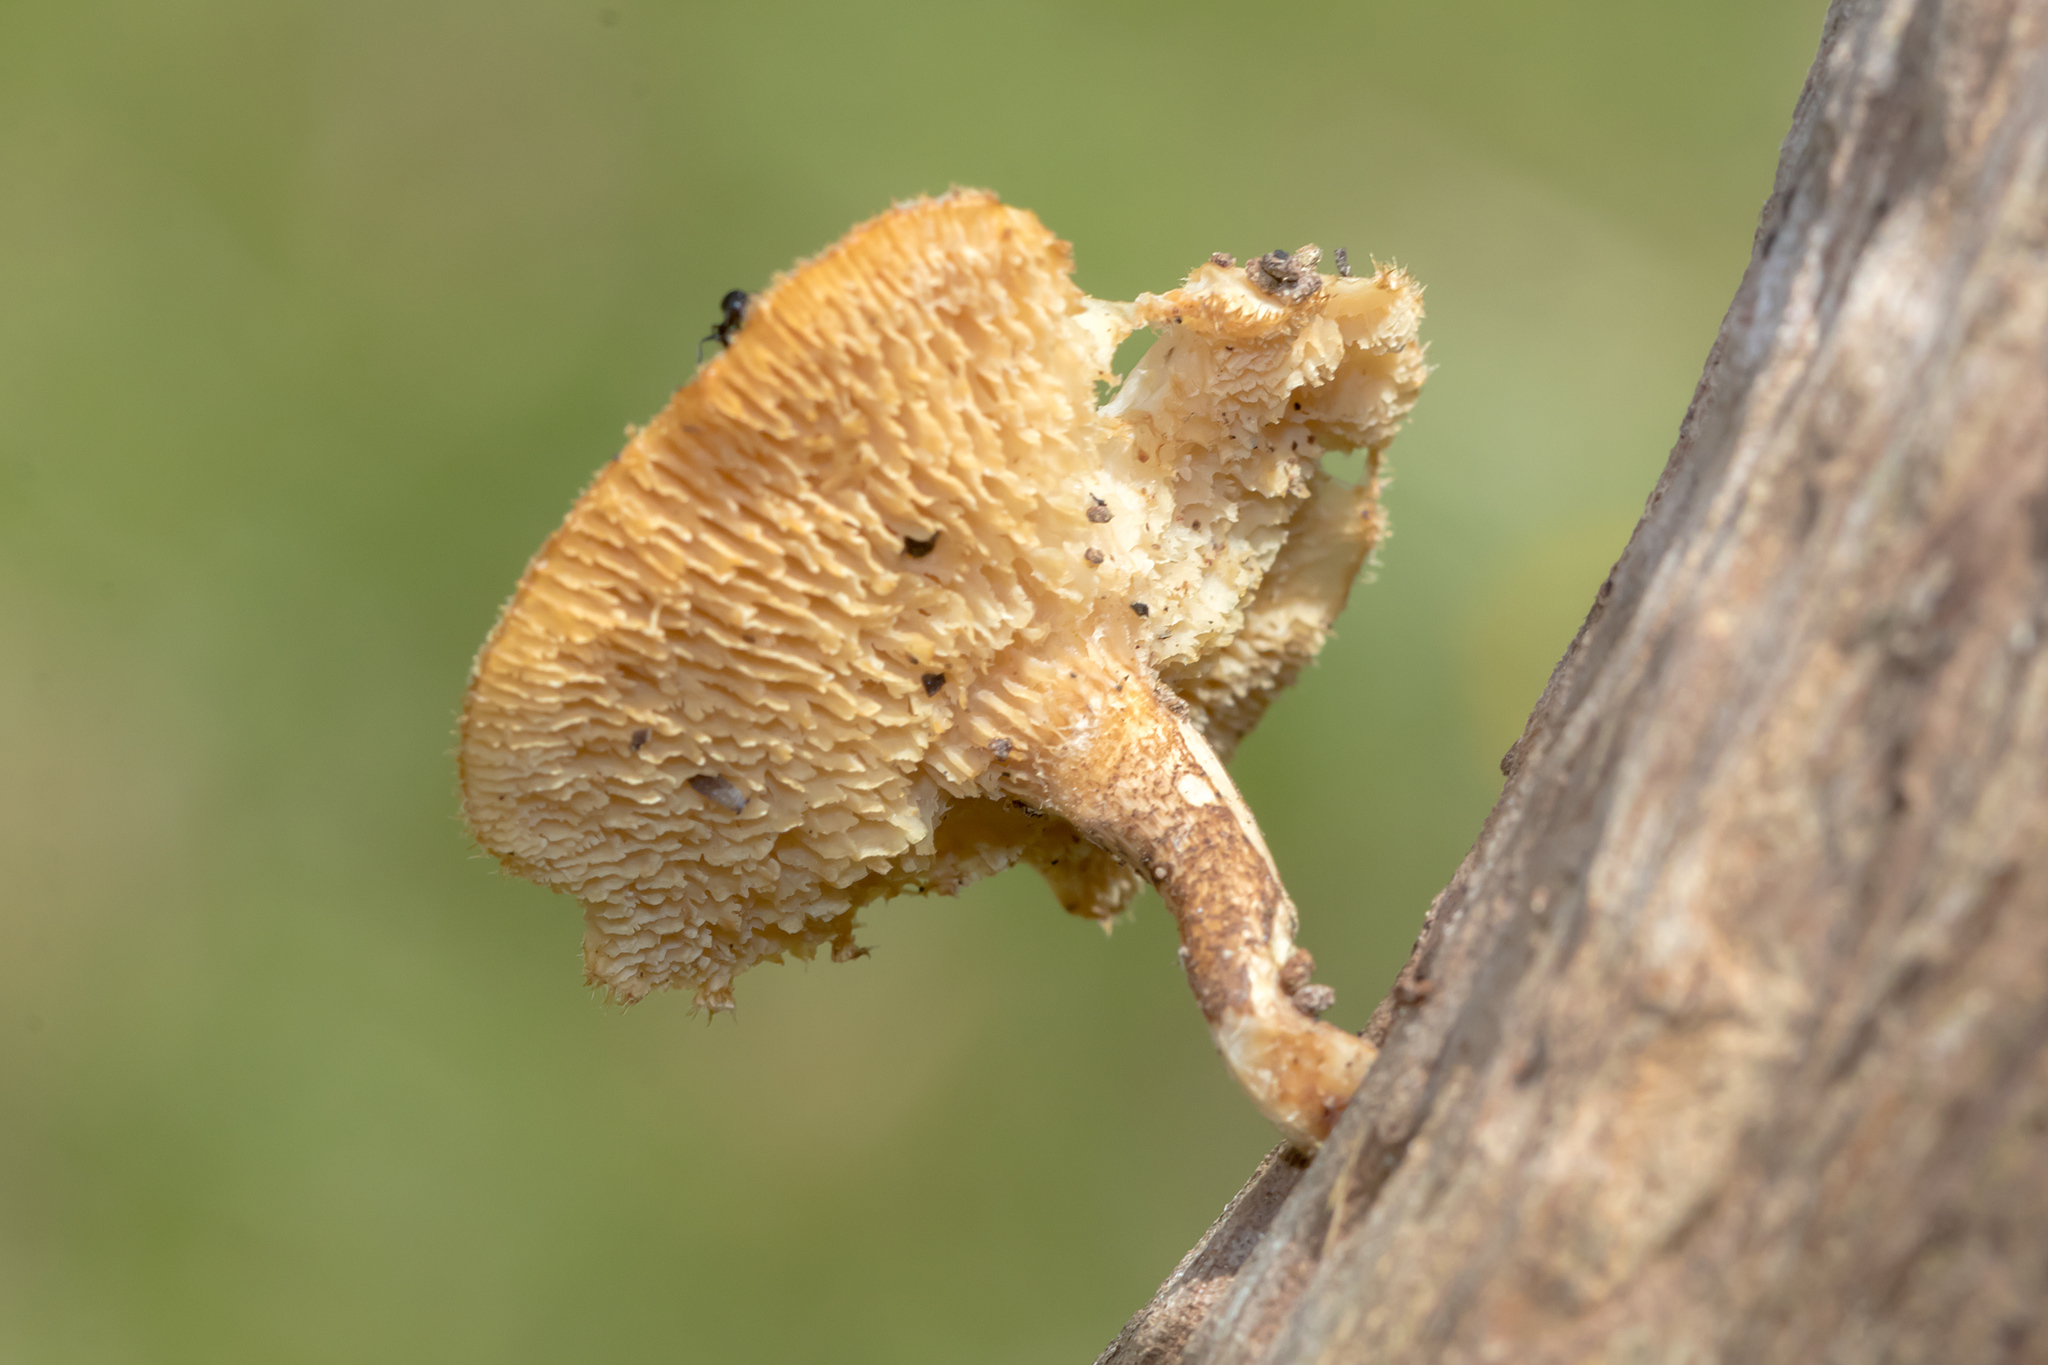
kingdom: Fungi
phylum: Basidiomycota
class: Agaricomycetes
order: Polyporales
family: Polyporaceae
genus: Lentinus
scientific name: Lentinus arcularius
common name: Spring polypore
